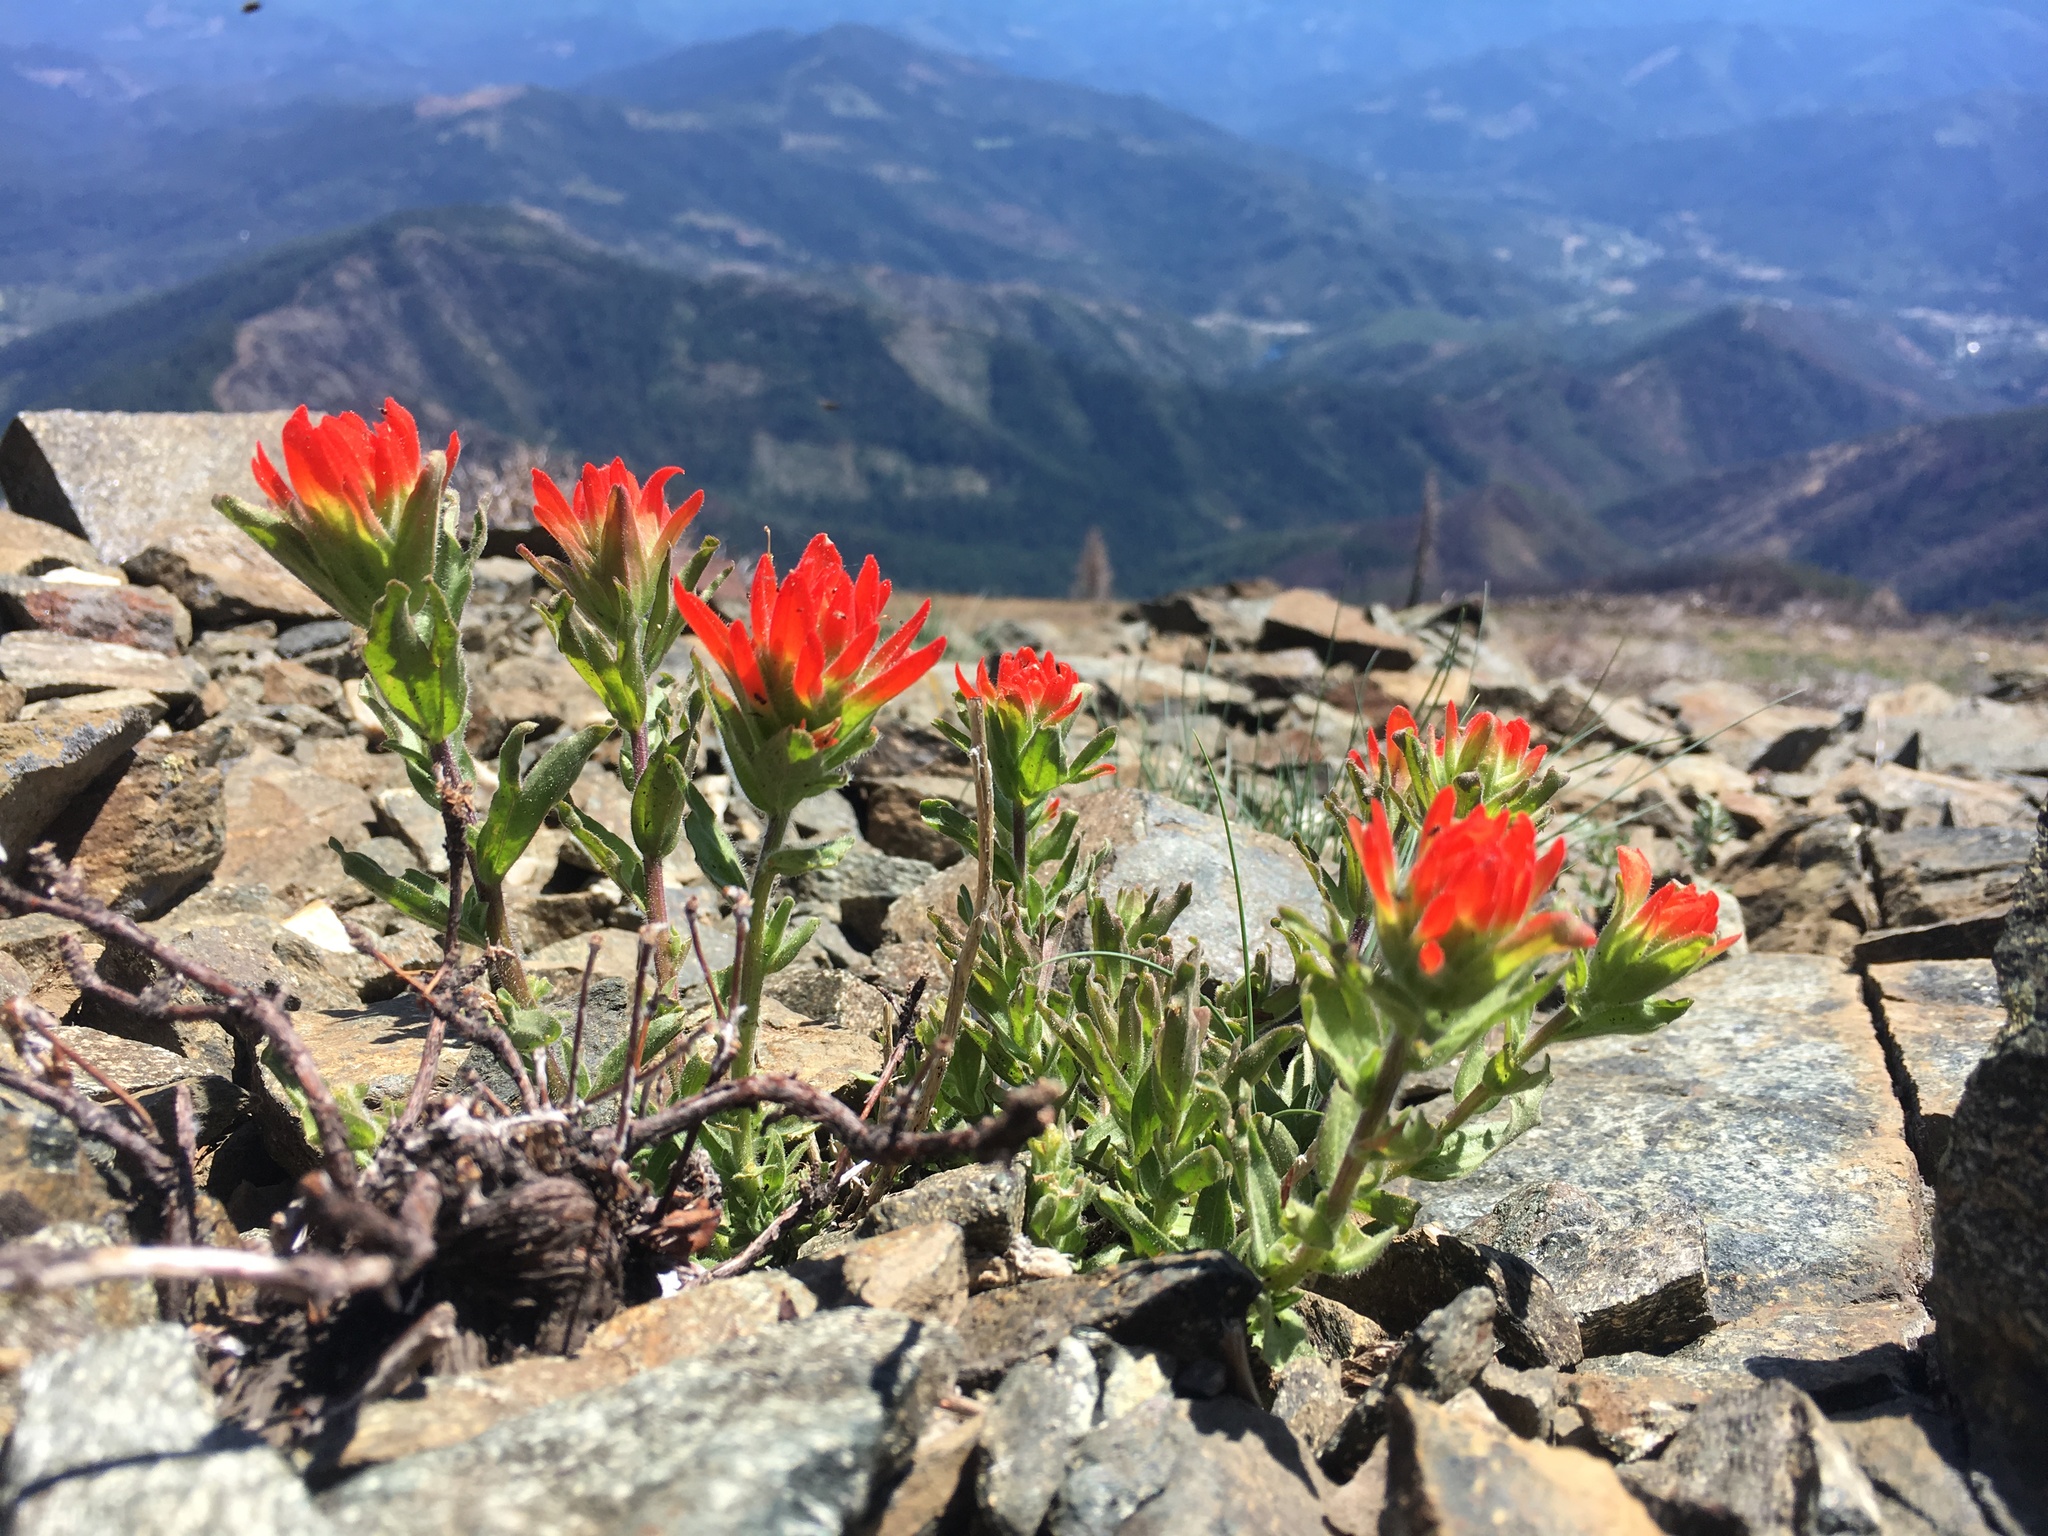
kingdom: Plantae
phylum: Tracheophyta
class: Magnoliopsida
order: Lamiales
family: Orobanchaceae
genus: Castilleja
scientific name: Castilleja brevilobata
